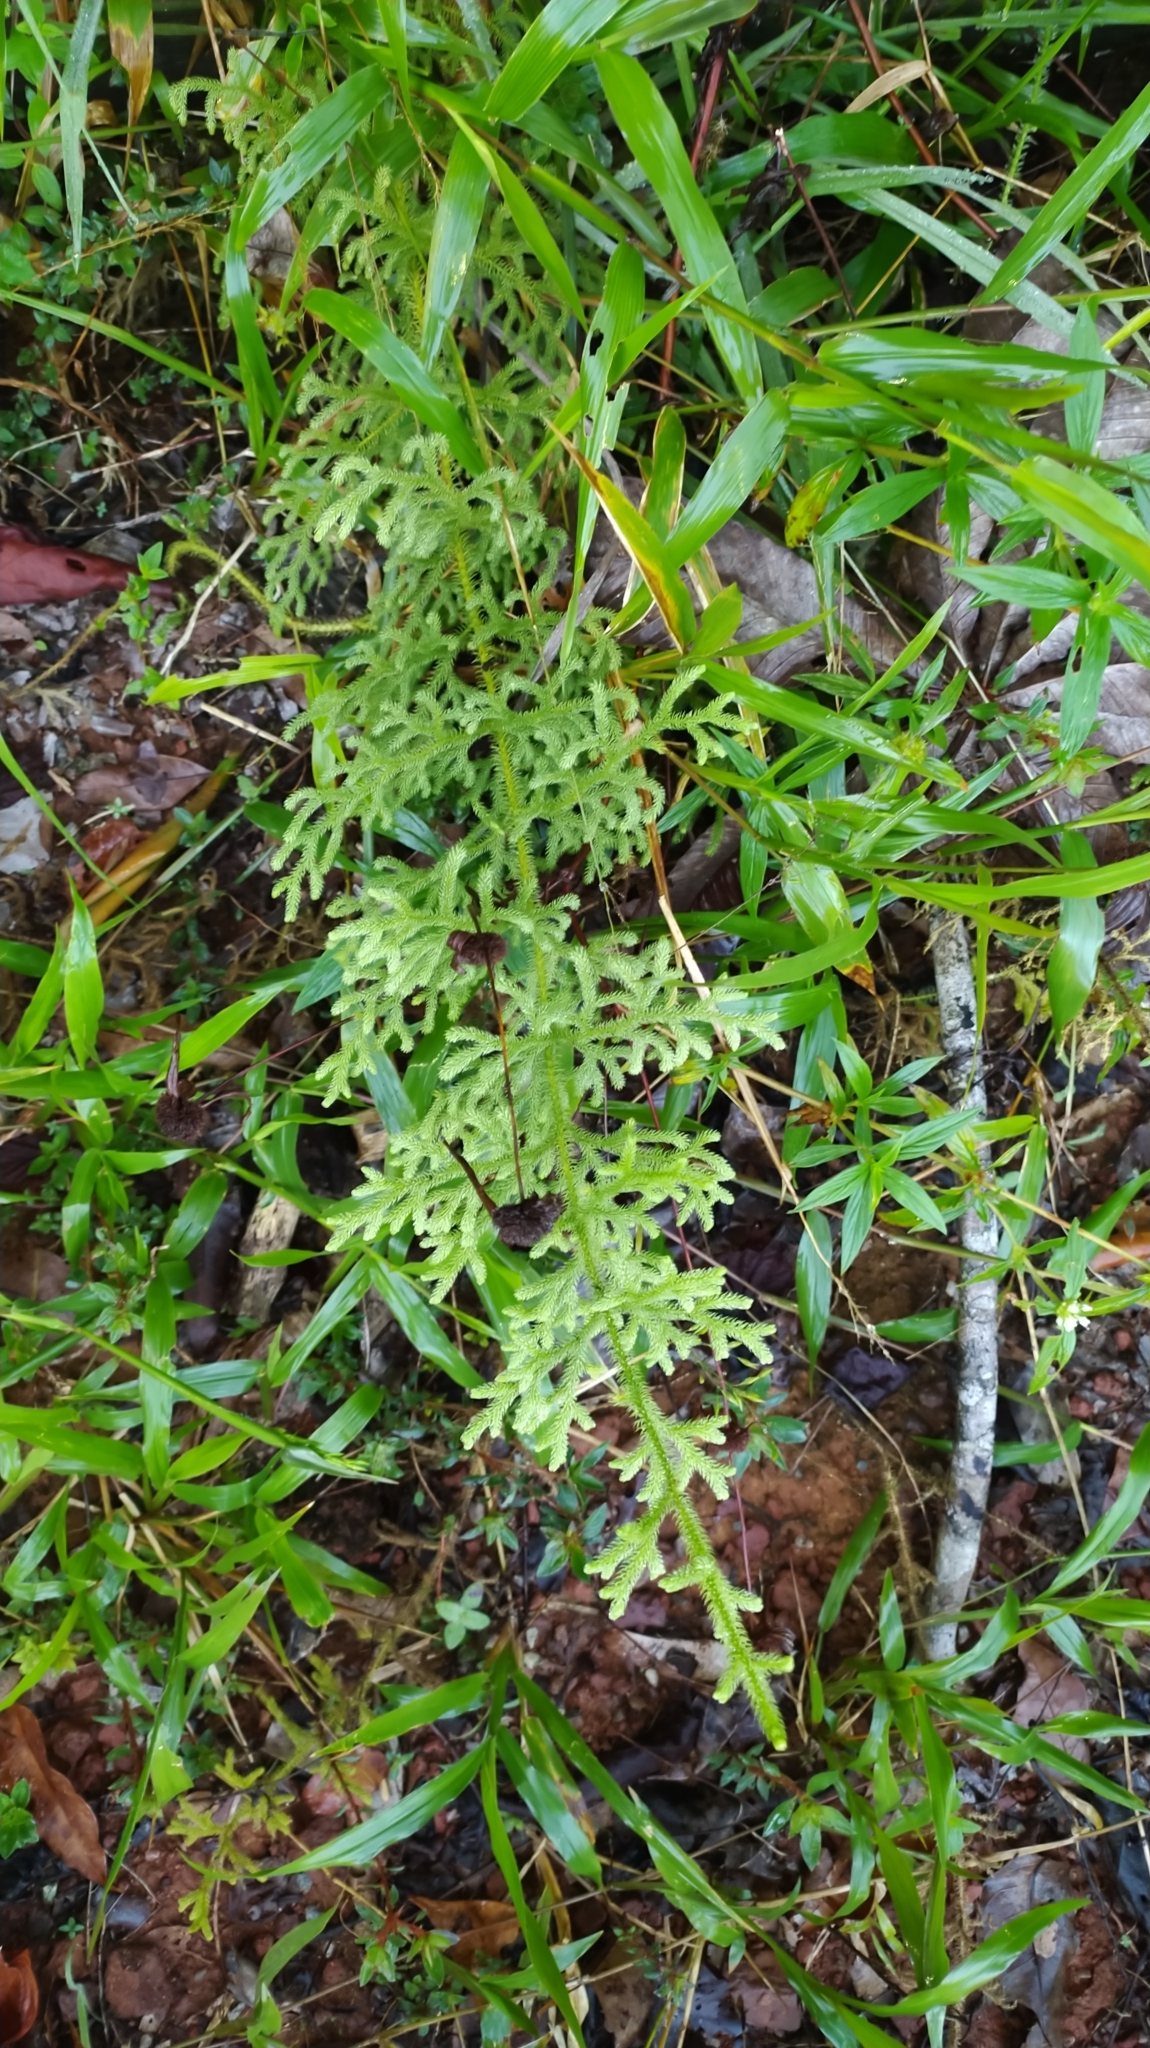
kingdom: Plantae
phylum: Tracheophyta
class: Lycopodiopsida
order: Lycopodiales
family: Lycopodiaceae
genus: Palhinhaea
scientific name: Palhinhaea cernua
